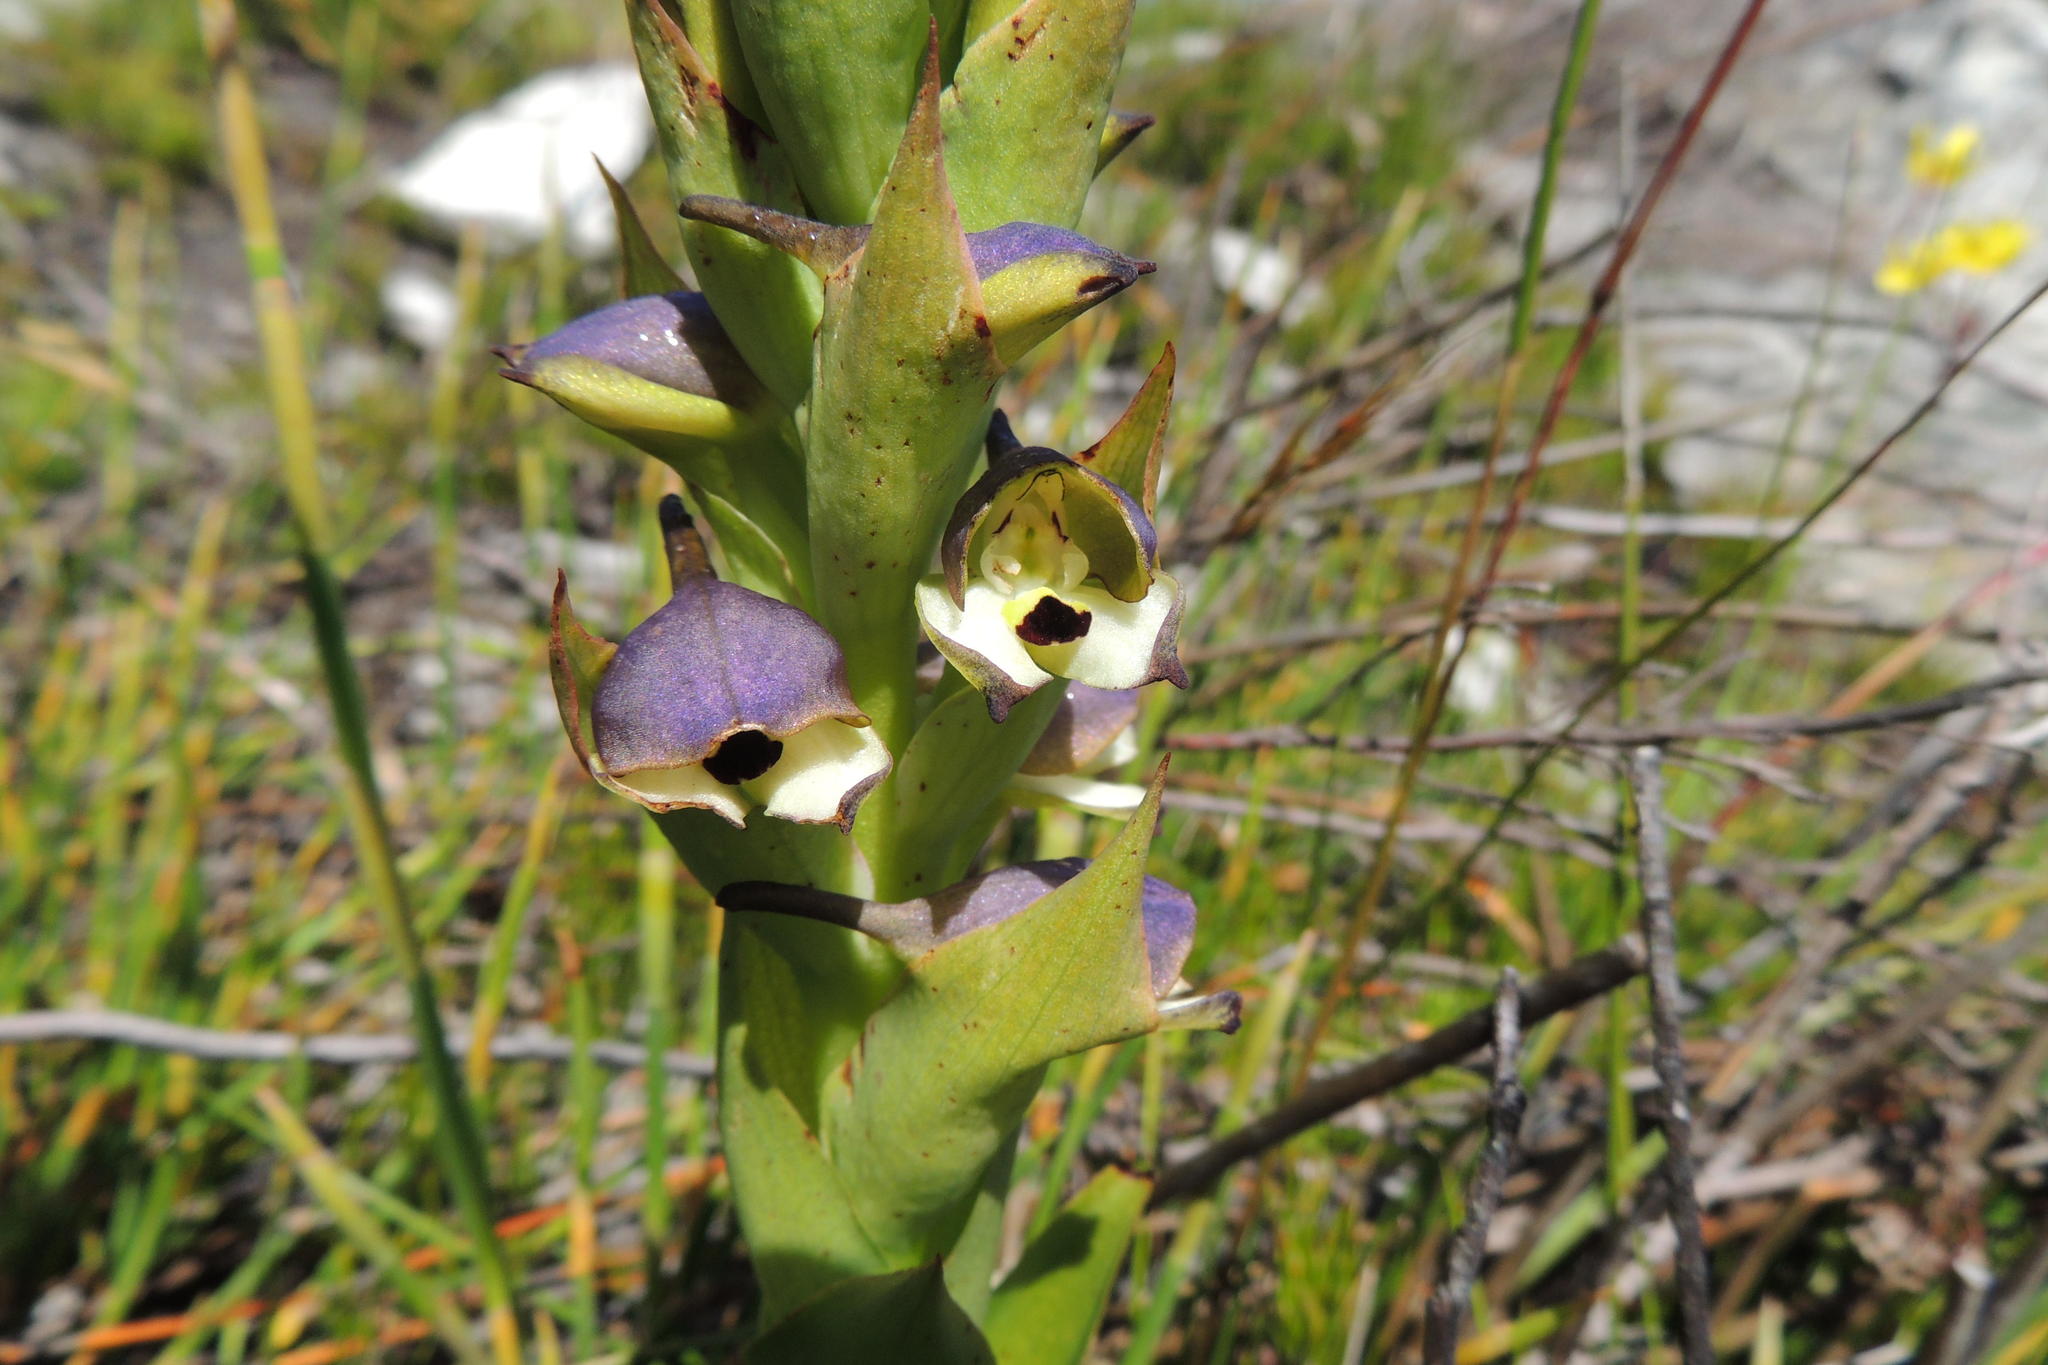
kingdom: Plantae
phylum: Tracheophyta
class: Liliopsida
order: Asparagales
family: Orchidaceae
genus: Disa
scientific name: Disa cornuta
